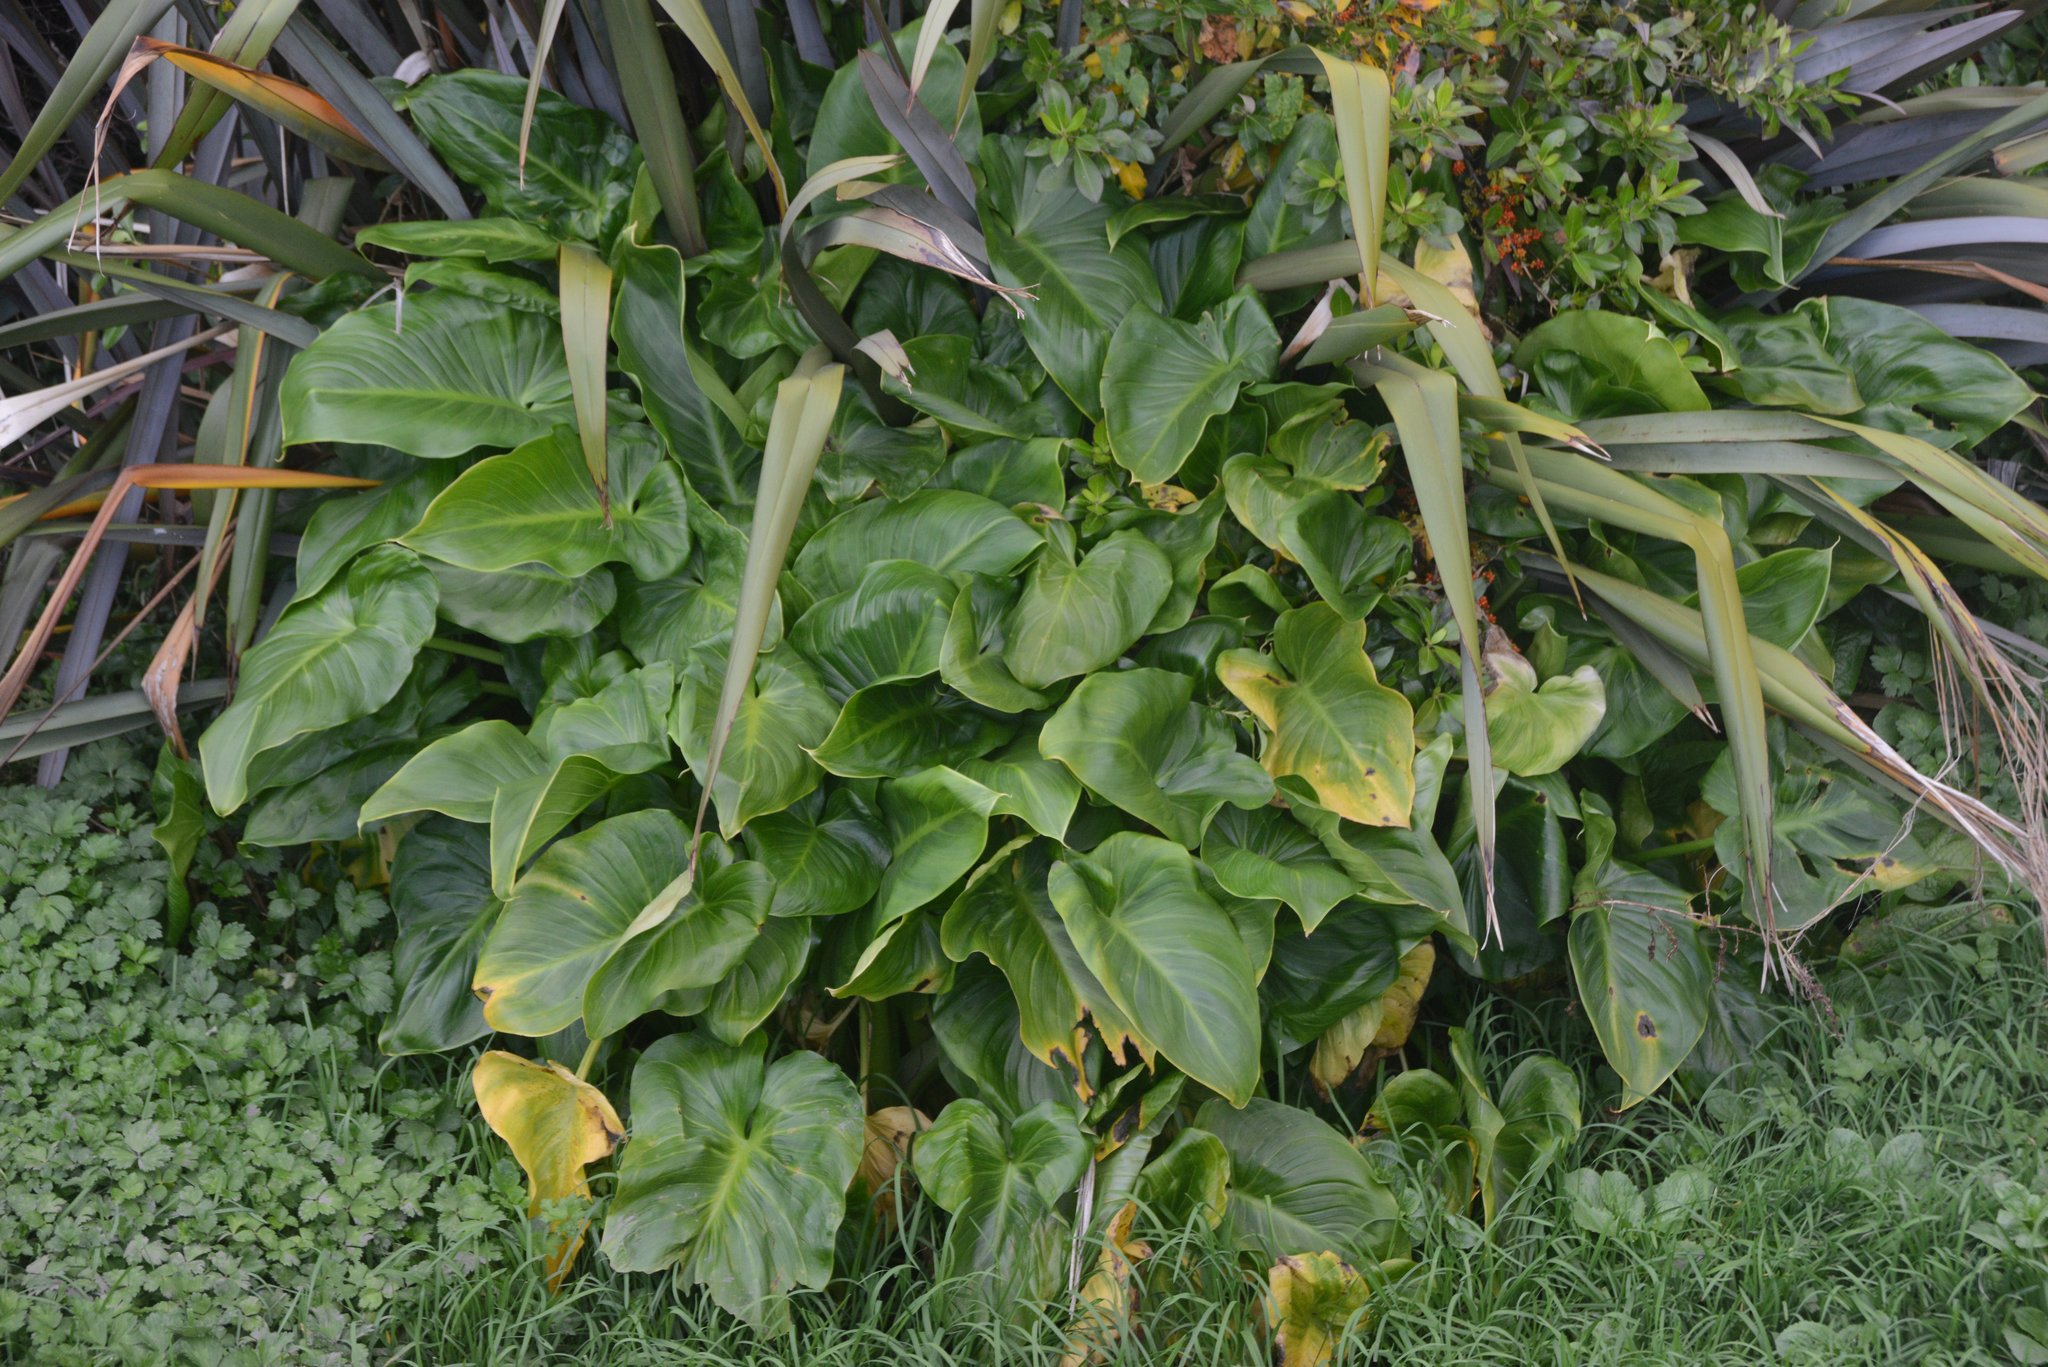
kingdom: Plantae
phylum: Tracheophyta
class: Liliopsida
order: Alismatales
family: Araceae
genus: Zantedeschia
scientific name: Zantedeschia aethiopica
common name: Altar-lily
